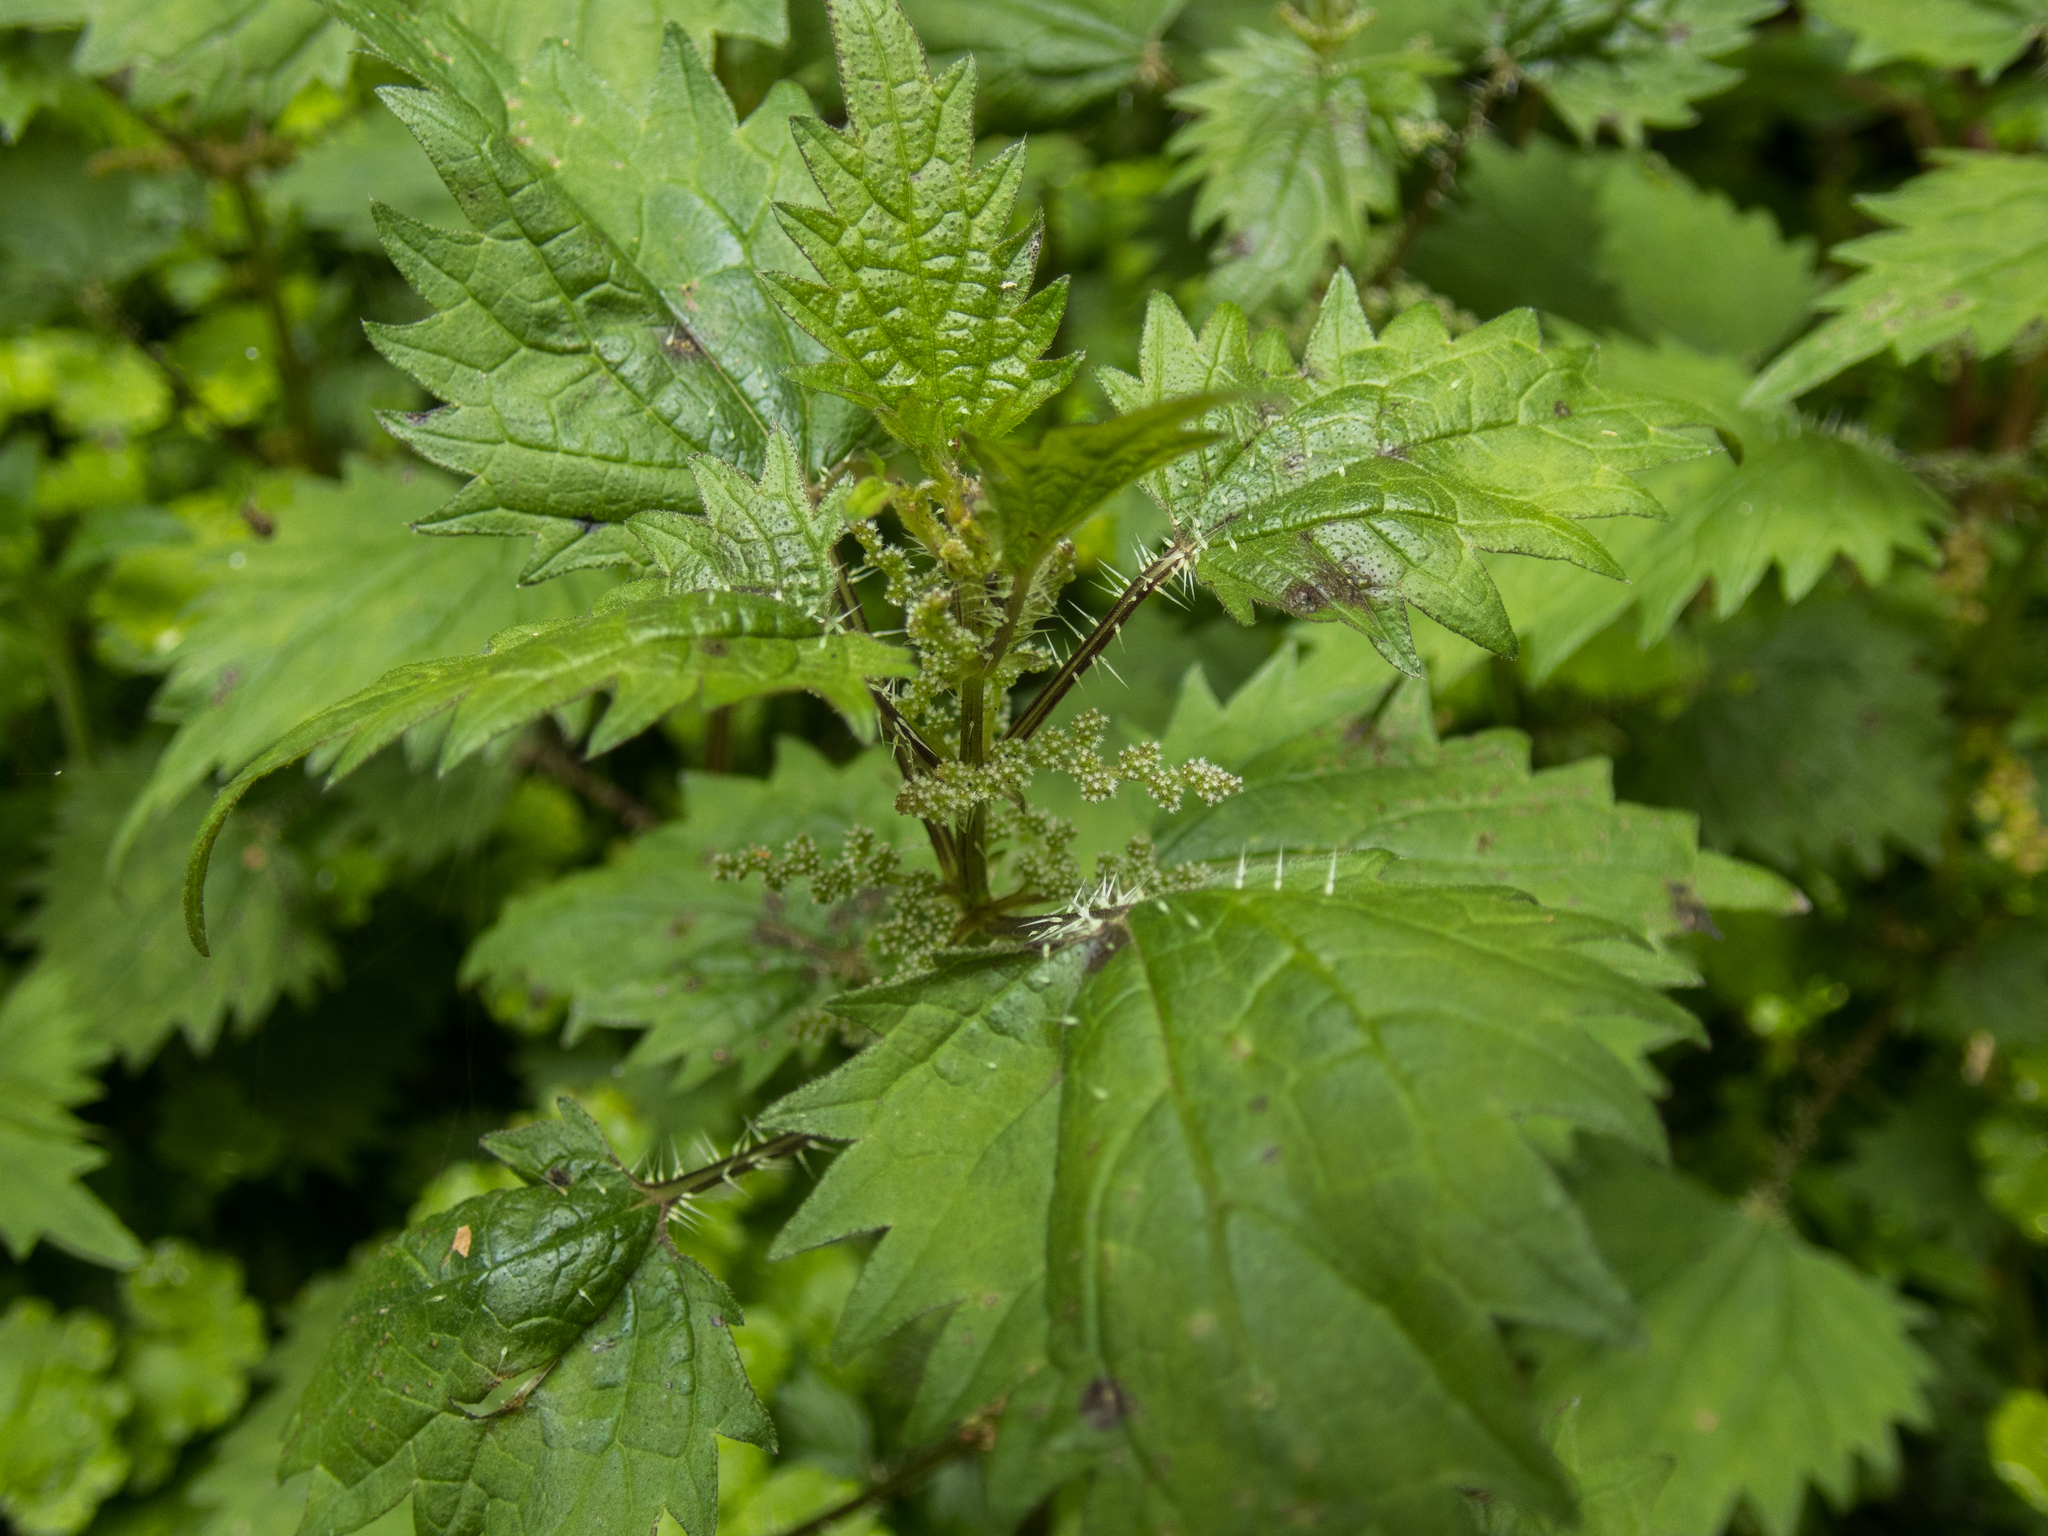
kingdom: Plantae
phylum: Tracheophyta
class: Magnoliopsida
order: Rosales
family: Urticaceae
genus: Urtica
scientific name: Urtica sykesii
